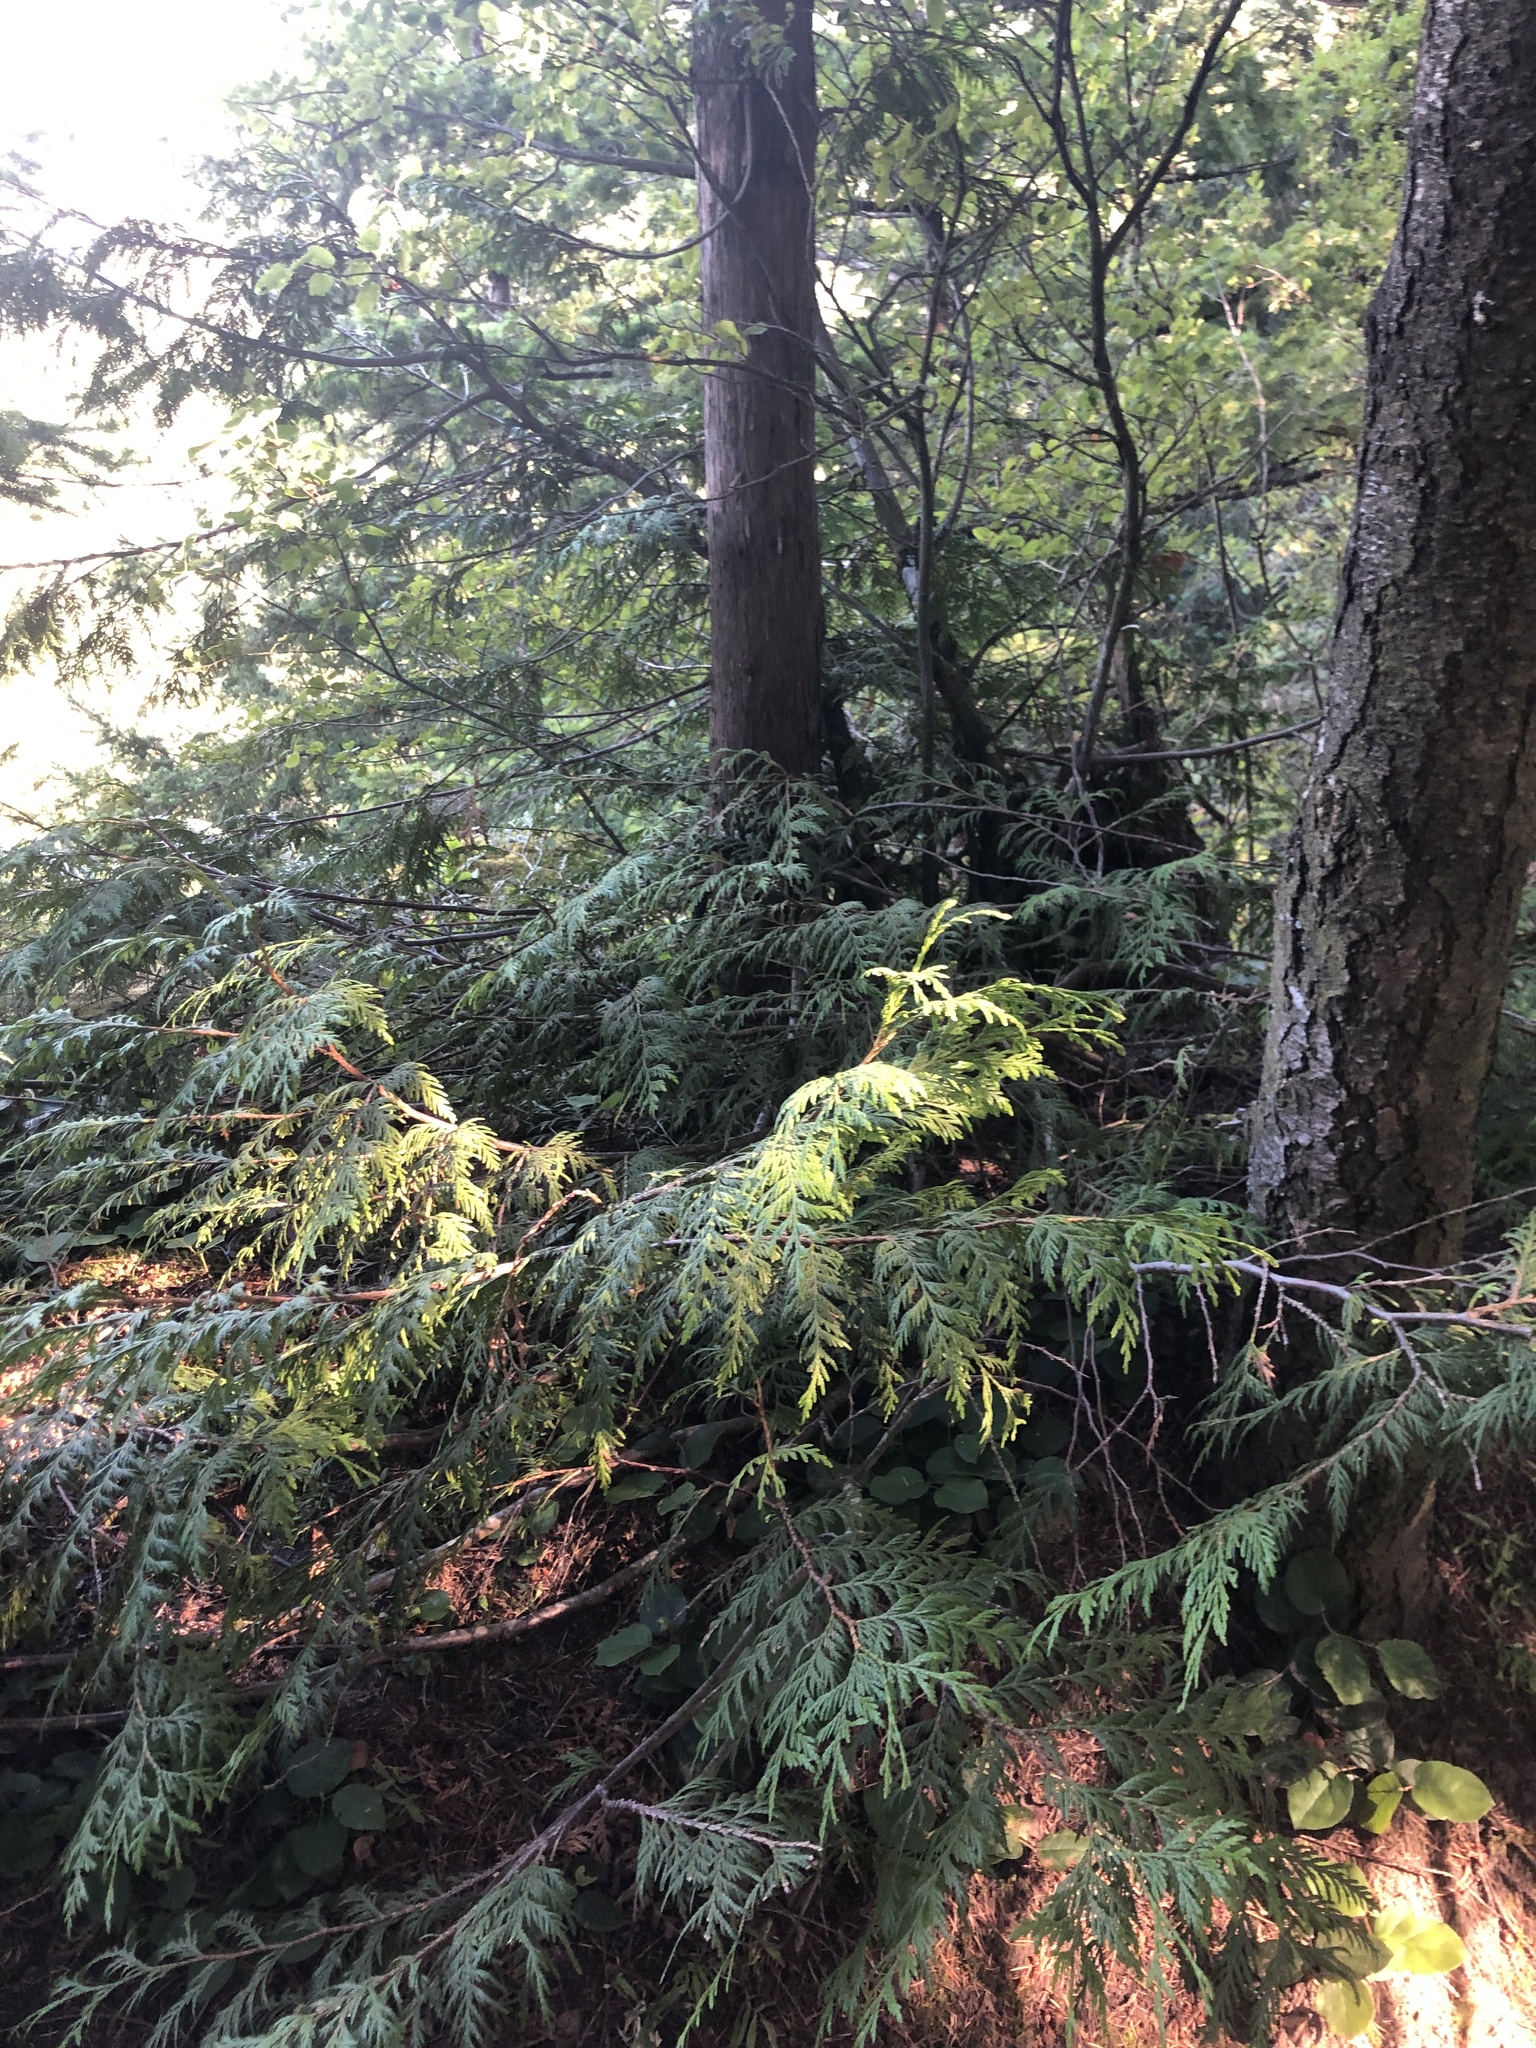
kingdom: Plantae
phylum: Tracheophyta
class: Pinopsida
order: Pinales
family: Cupressaceae
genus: Thuja
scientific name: Thuja plicata
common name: Western red-cedar
